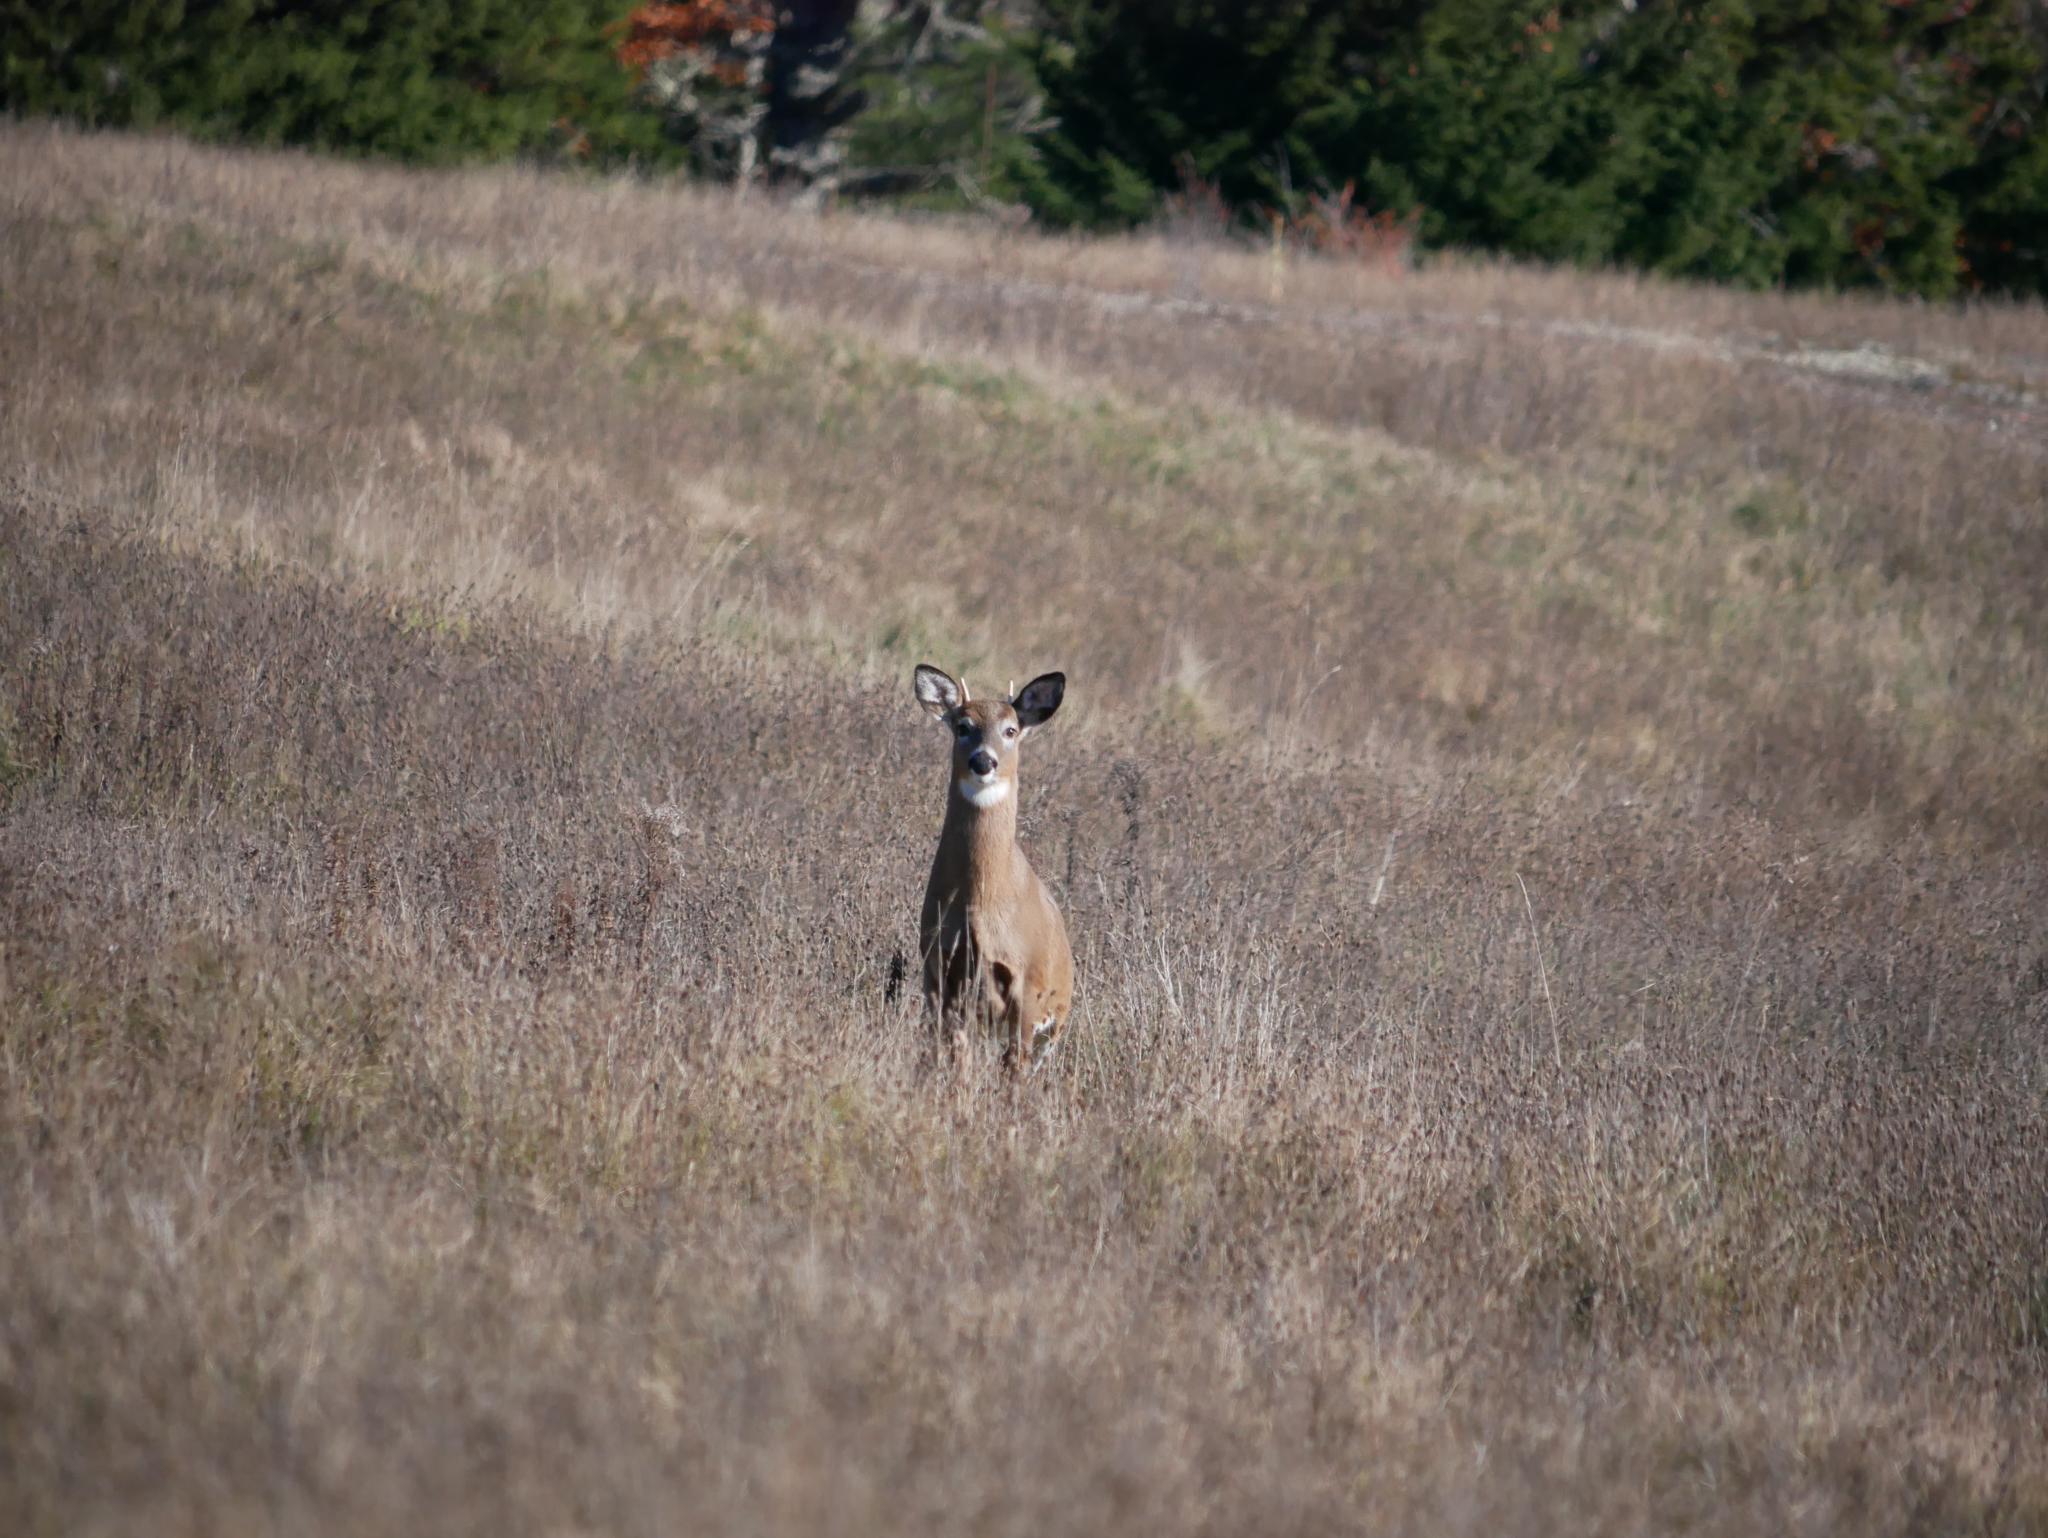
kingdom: Animalia
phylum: Chordata
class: Mammalia
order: Artiodactyla
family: Cervidae
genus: Odocoileus
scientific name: Odocoileus virginianus
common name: White-tailed deer
